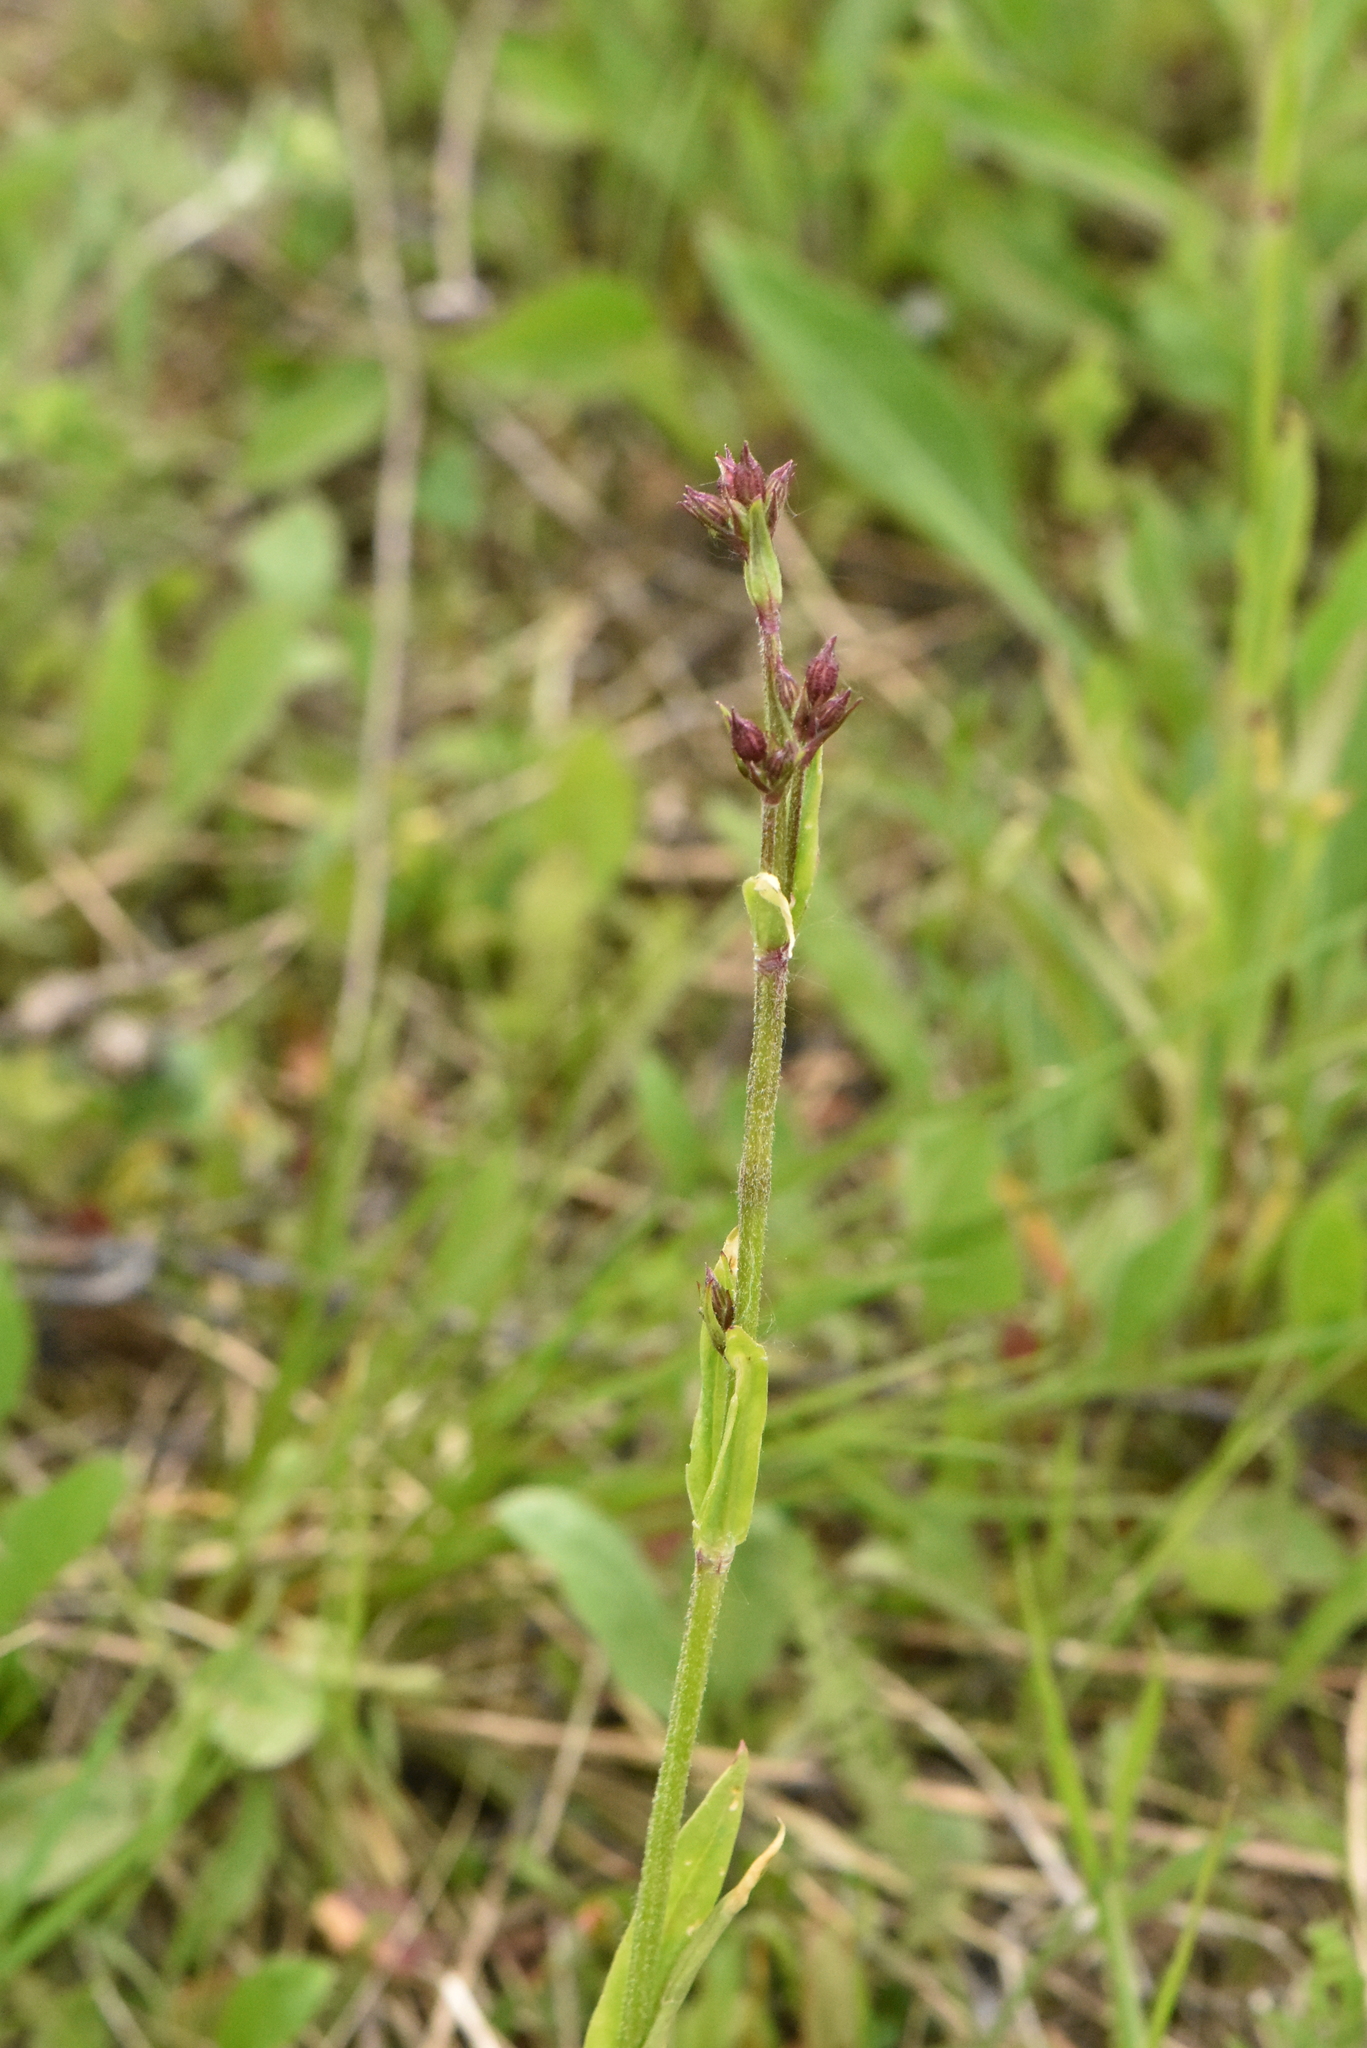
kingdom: Plantae
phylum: Tracheophyta
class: Magnoliopsida
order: Caryophyllales
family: Caryophyllaceae
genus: Silene
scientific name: Silene flos-cuculi
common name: Ragged-robin
